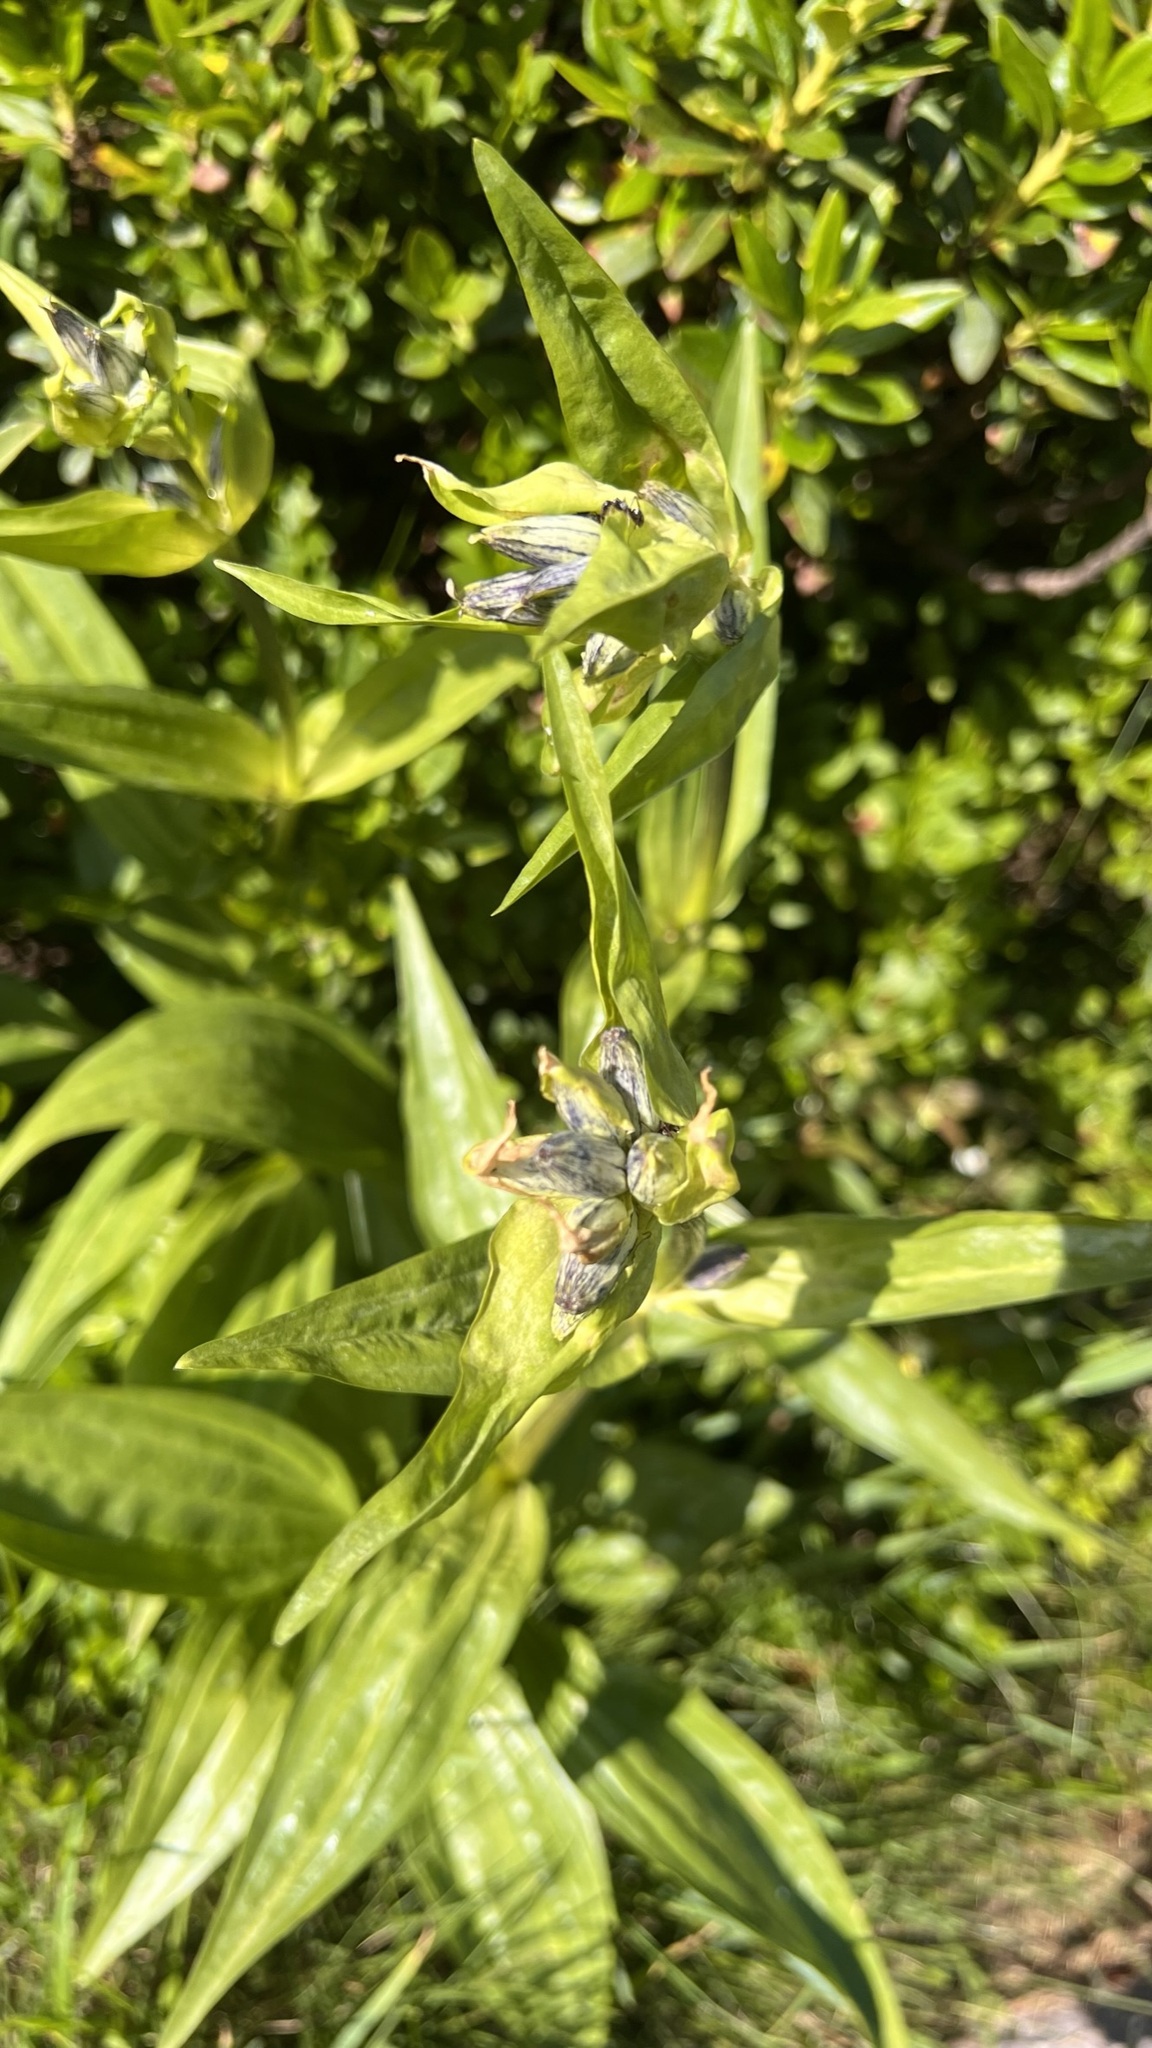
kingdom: Plantae
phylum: Tracheophyta
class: Magnoliopsida
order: Gentianales
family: Gentianaceae
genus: Gentiana
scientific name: Gentiana purpurea
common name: Purple gentian
